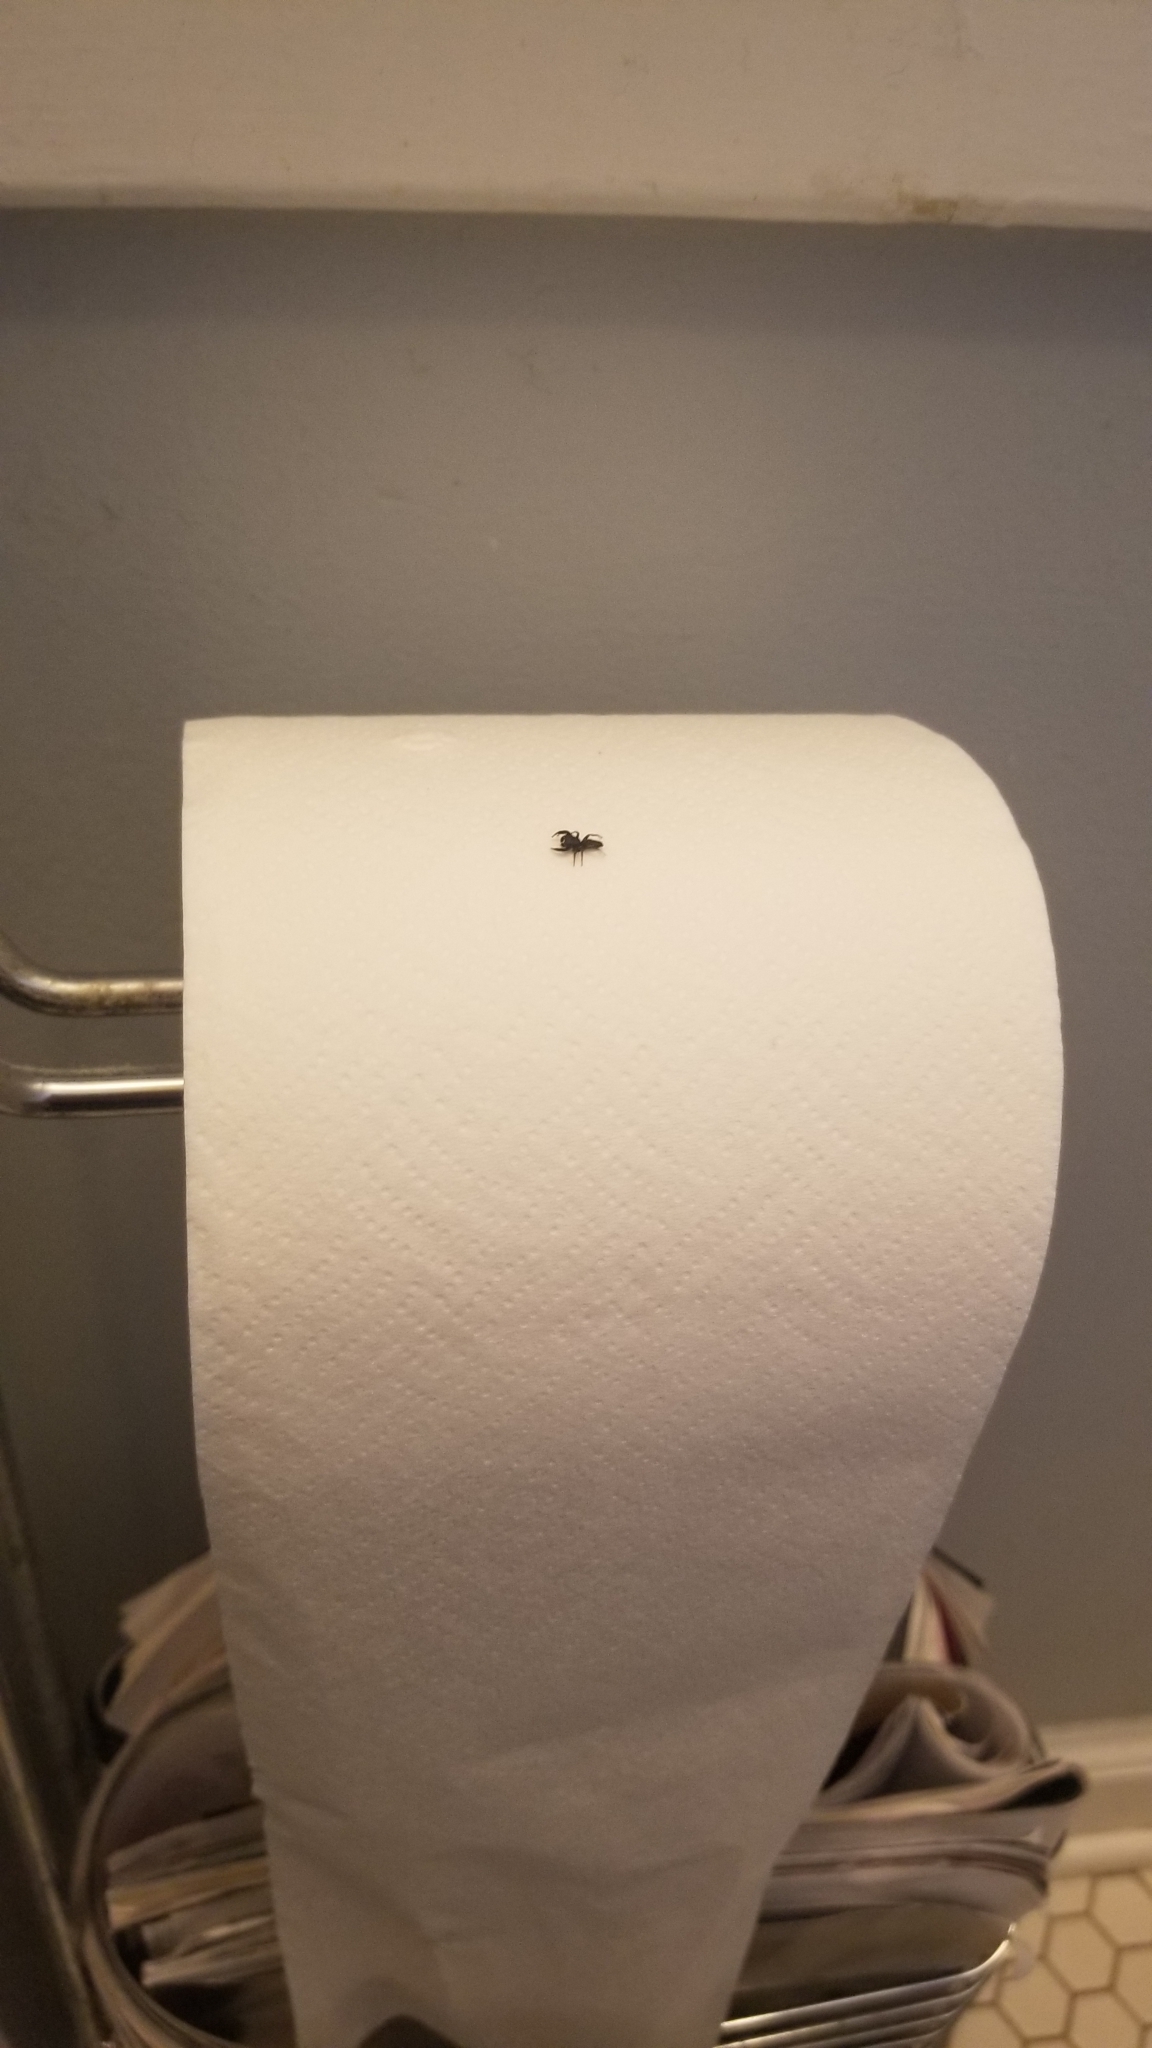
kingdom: Animalia
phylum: Arthropoda
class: Arachnida
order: Araneae
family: Salticidae
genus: Metacyrba
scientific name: Metacyrba taeniola
